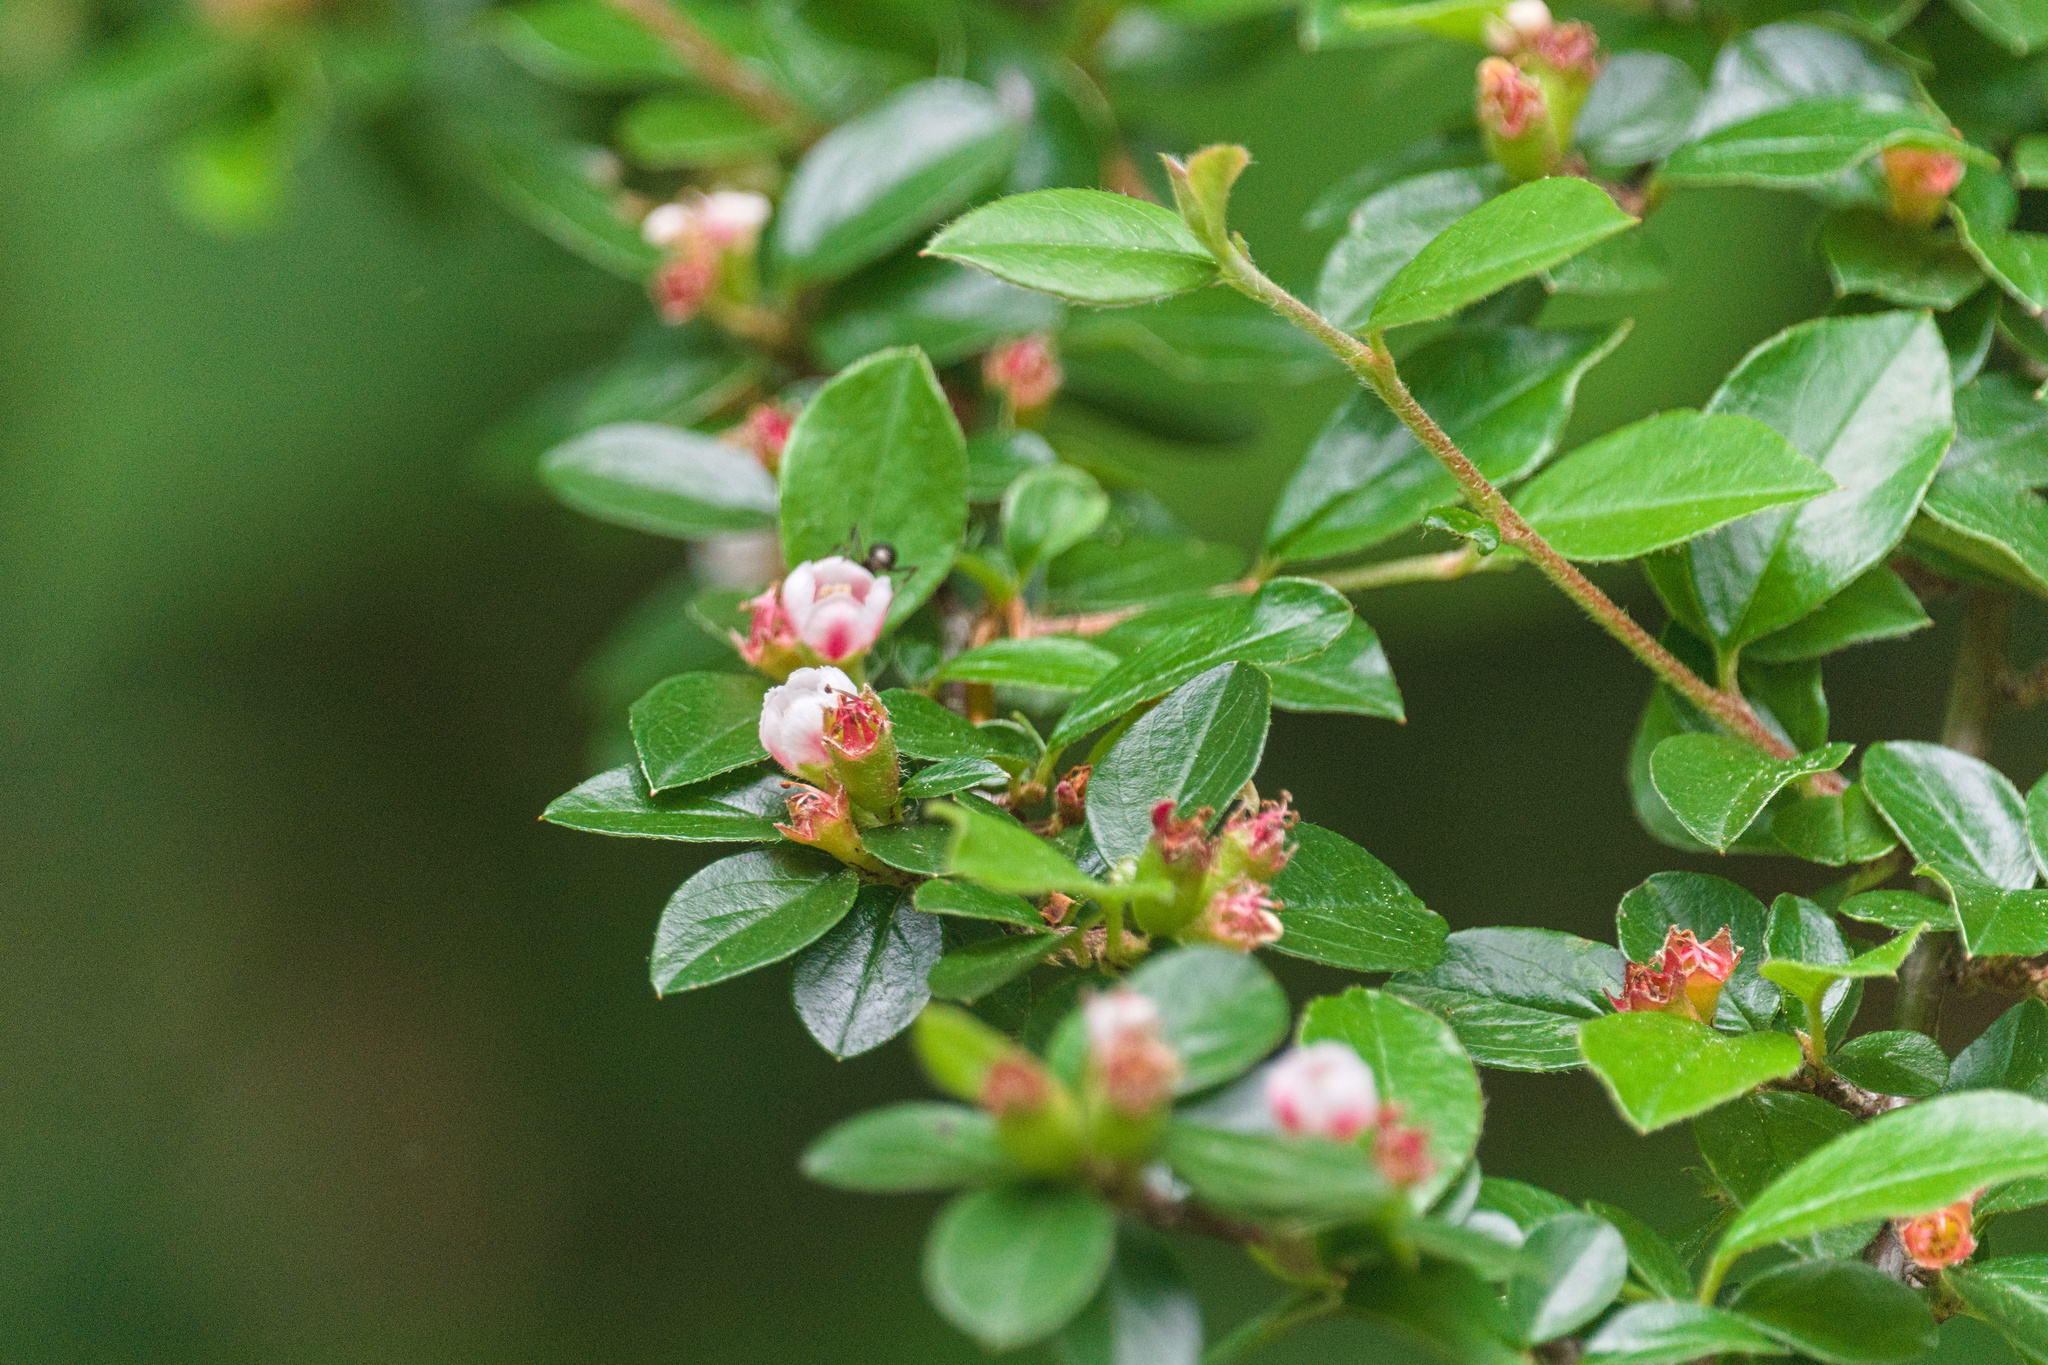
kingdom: Plantae
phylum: Tracheophyta
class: Magnoliopsida
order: Rosales
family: Rosaceae
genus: Cotoneaster
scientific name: Cotoneaster divaricatus
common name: Spreading cotoneaster
